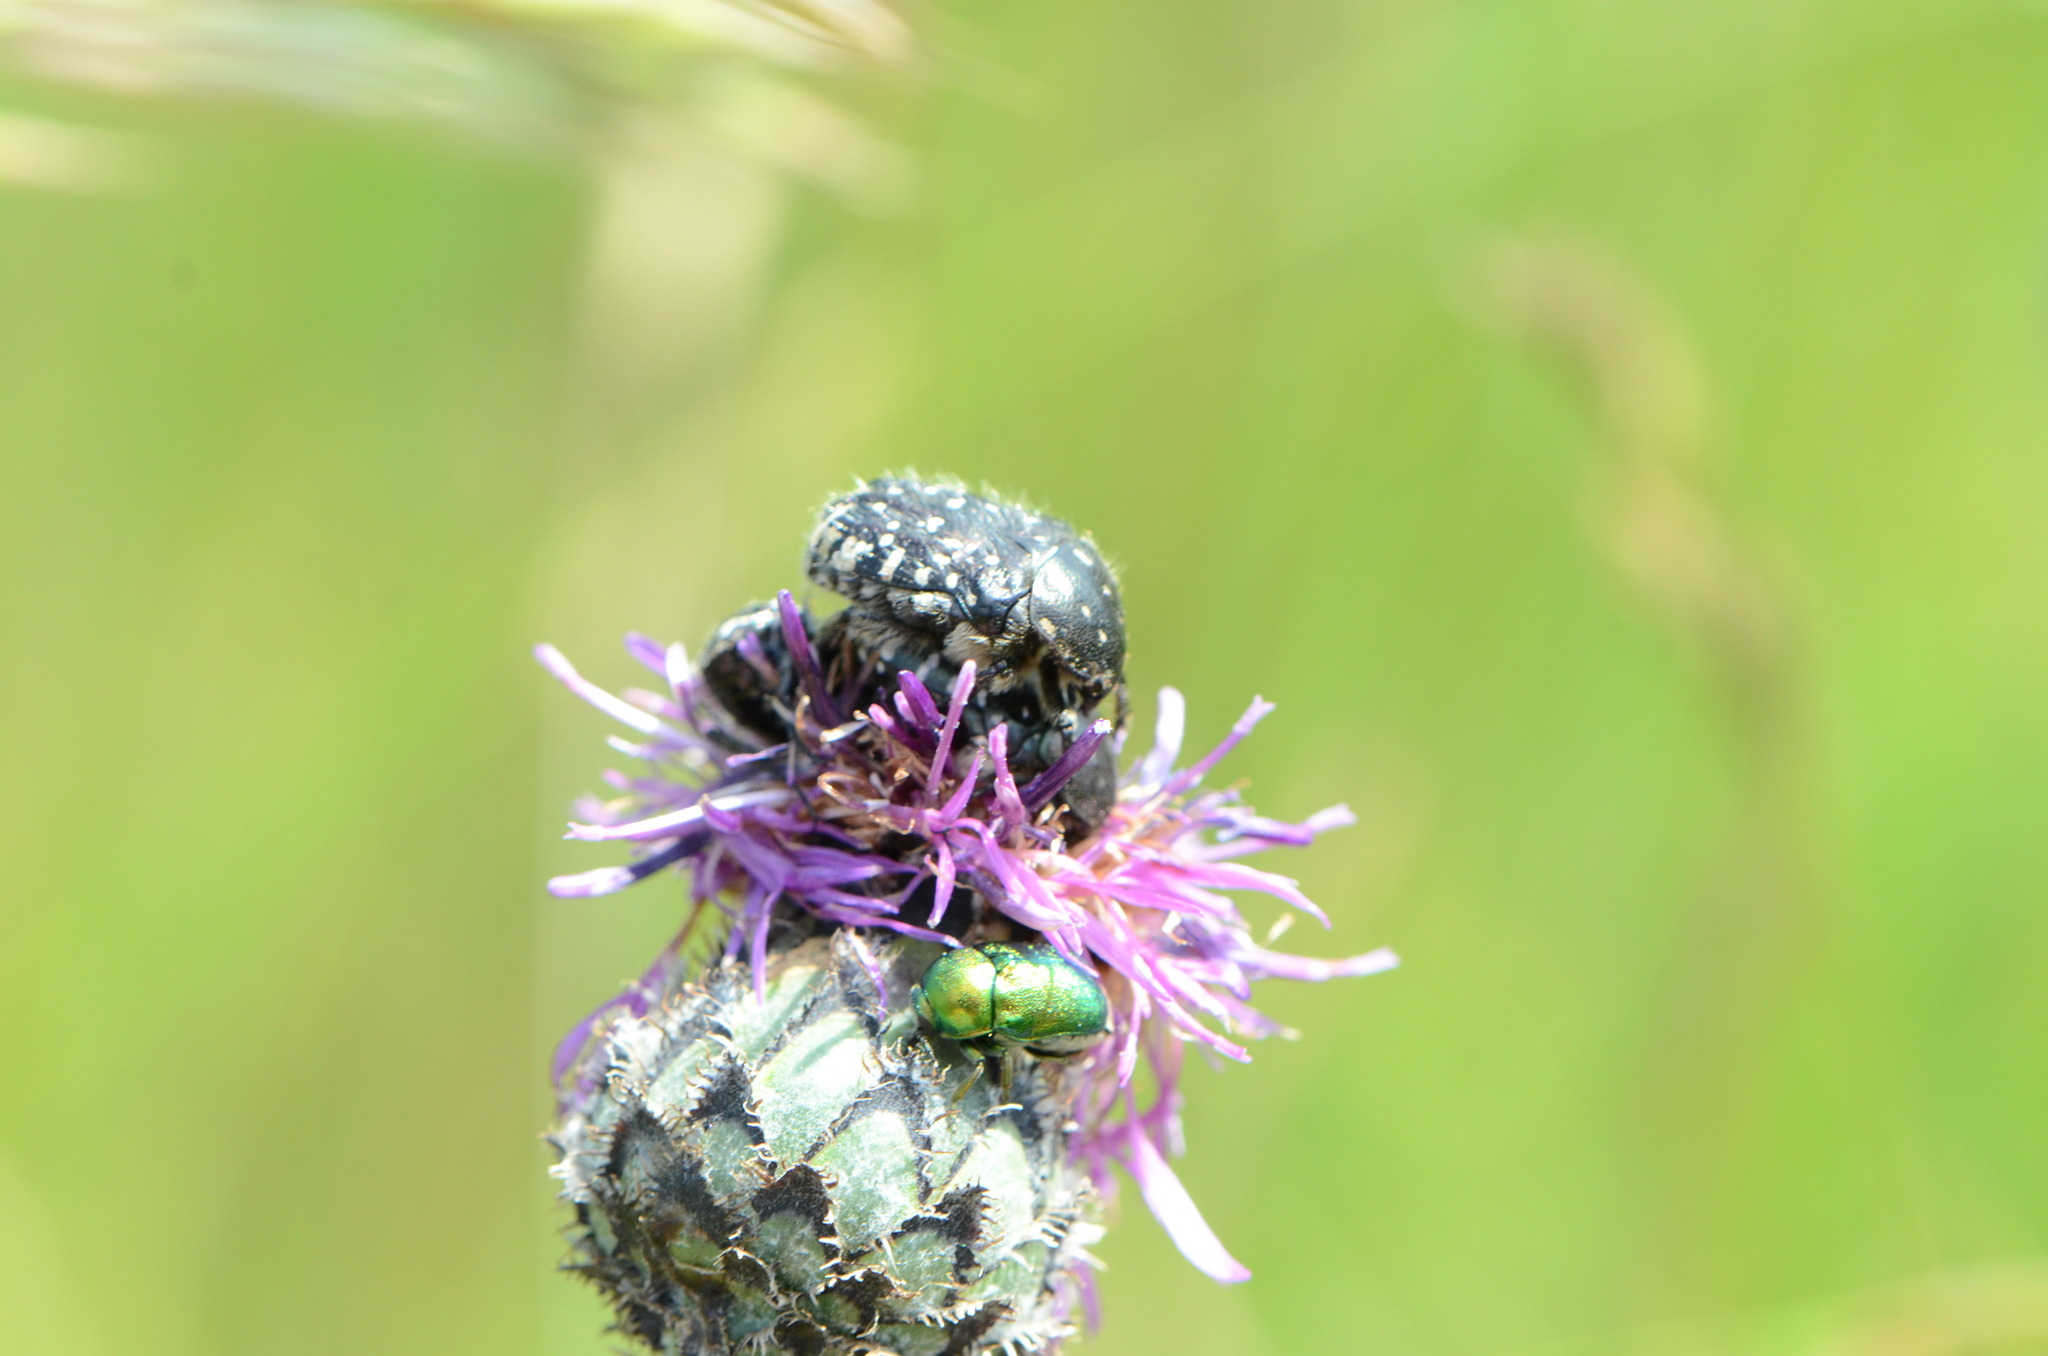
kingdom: Plantae
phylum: Tracheophyta
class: Magnoliopsida
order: Asterales
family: Asteraceae
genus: Centaurea
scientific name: Centaurea scabiosa
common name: Greater knapweed
